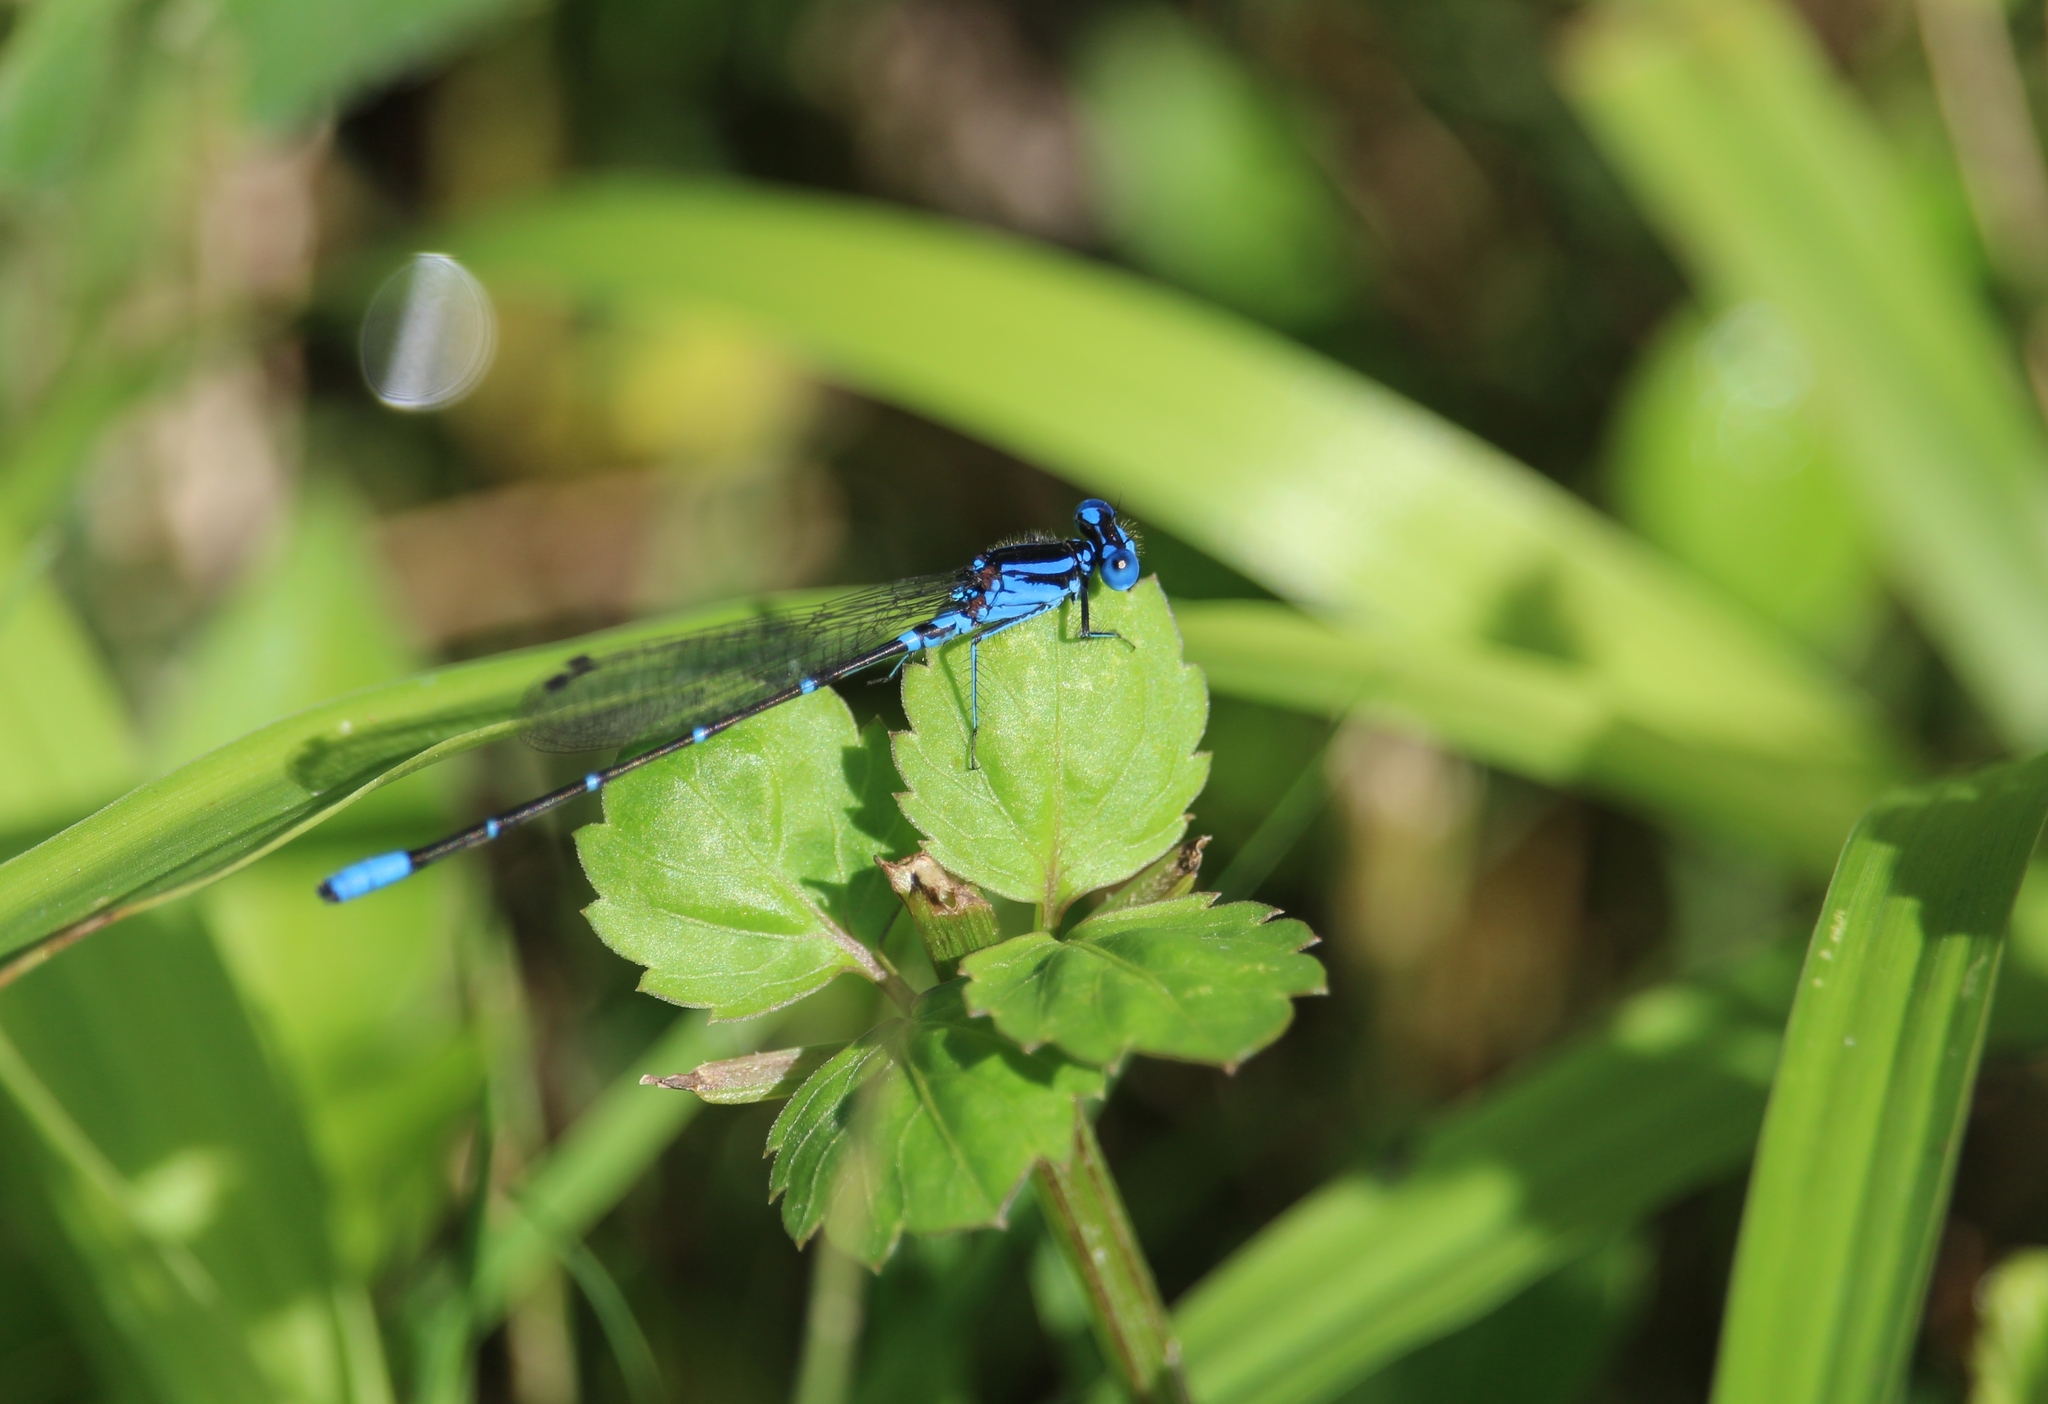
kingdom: Animalia
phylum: Arthropoda
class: Insecta
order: Odonata
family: Coenagrionidae
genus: Argia
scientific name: Argia gaumeri
